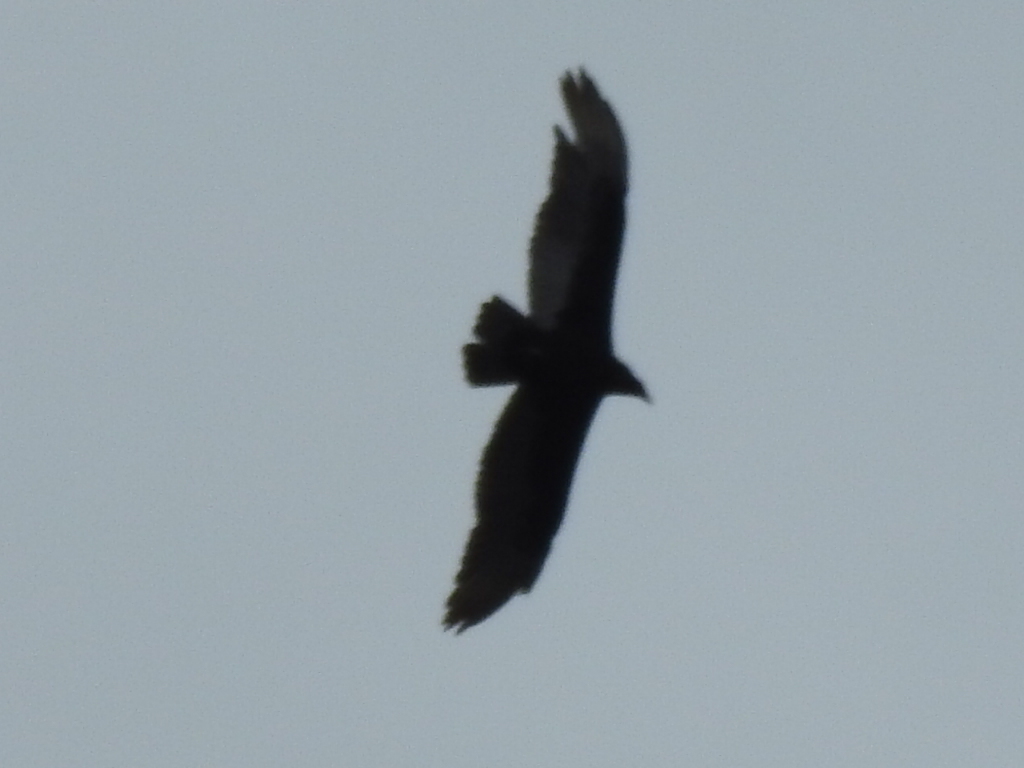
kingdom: Animalia
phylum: Chordata
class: Aves
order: Accipitriformes
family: Cathartidae
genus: Cathartes
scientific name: Cathartes aura
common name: Turkey vulture
